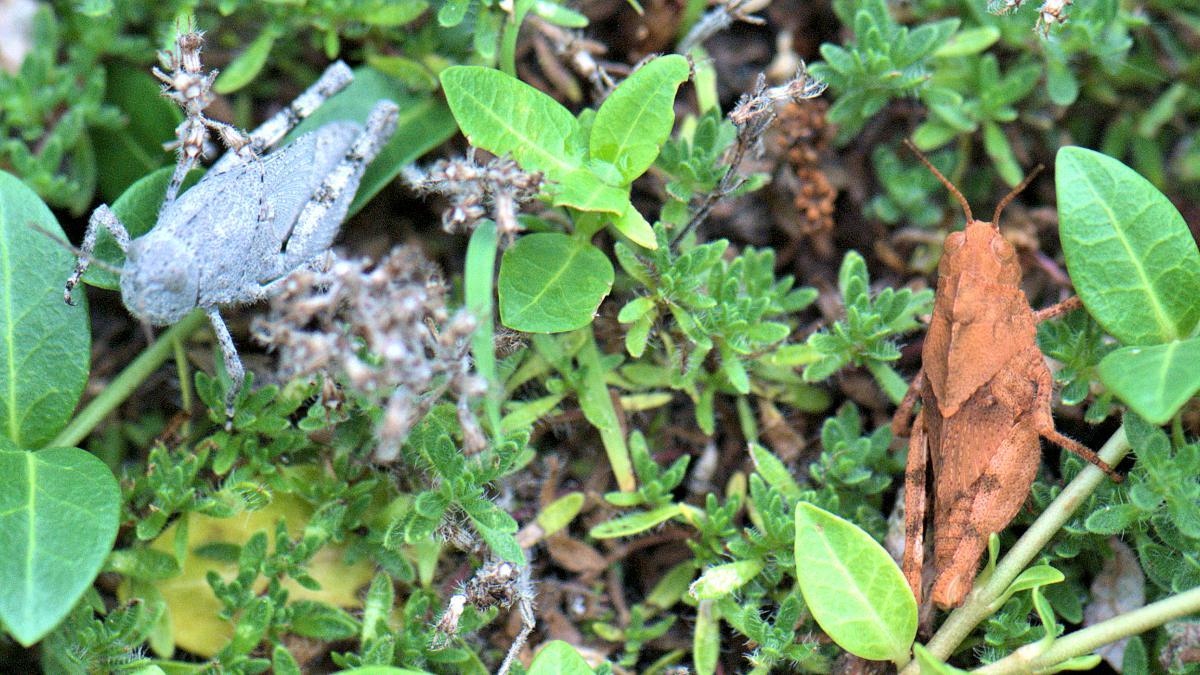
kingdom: Animalia
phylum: Arthropoda
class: Insecta
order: Orthoptera
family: Acrididae
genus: Dissosteira
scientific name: Dissosteira carolina
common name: Carolina grasshopper
